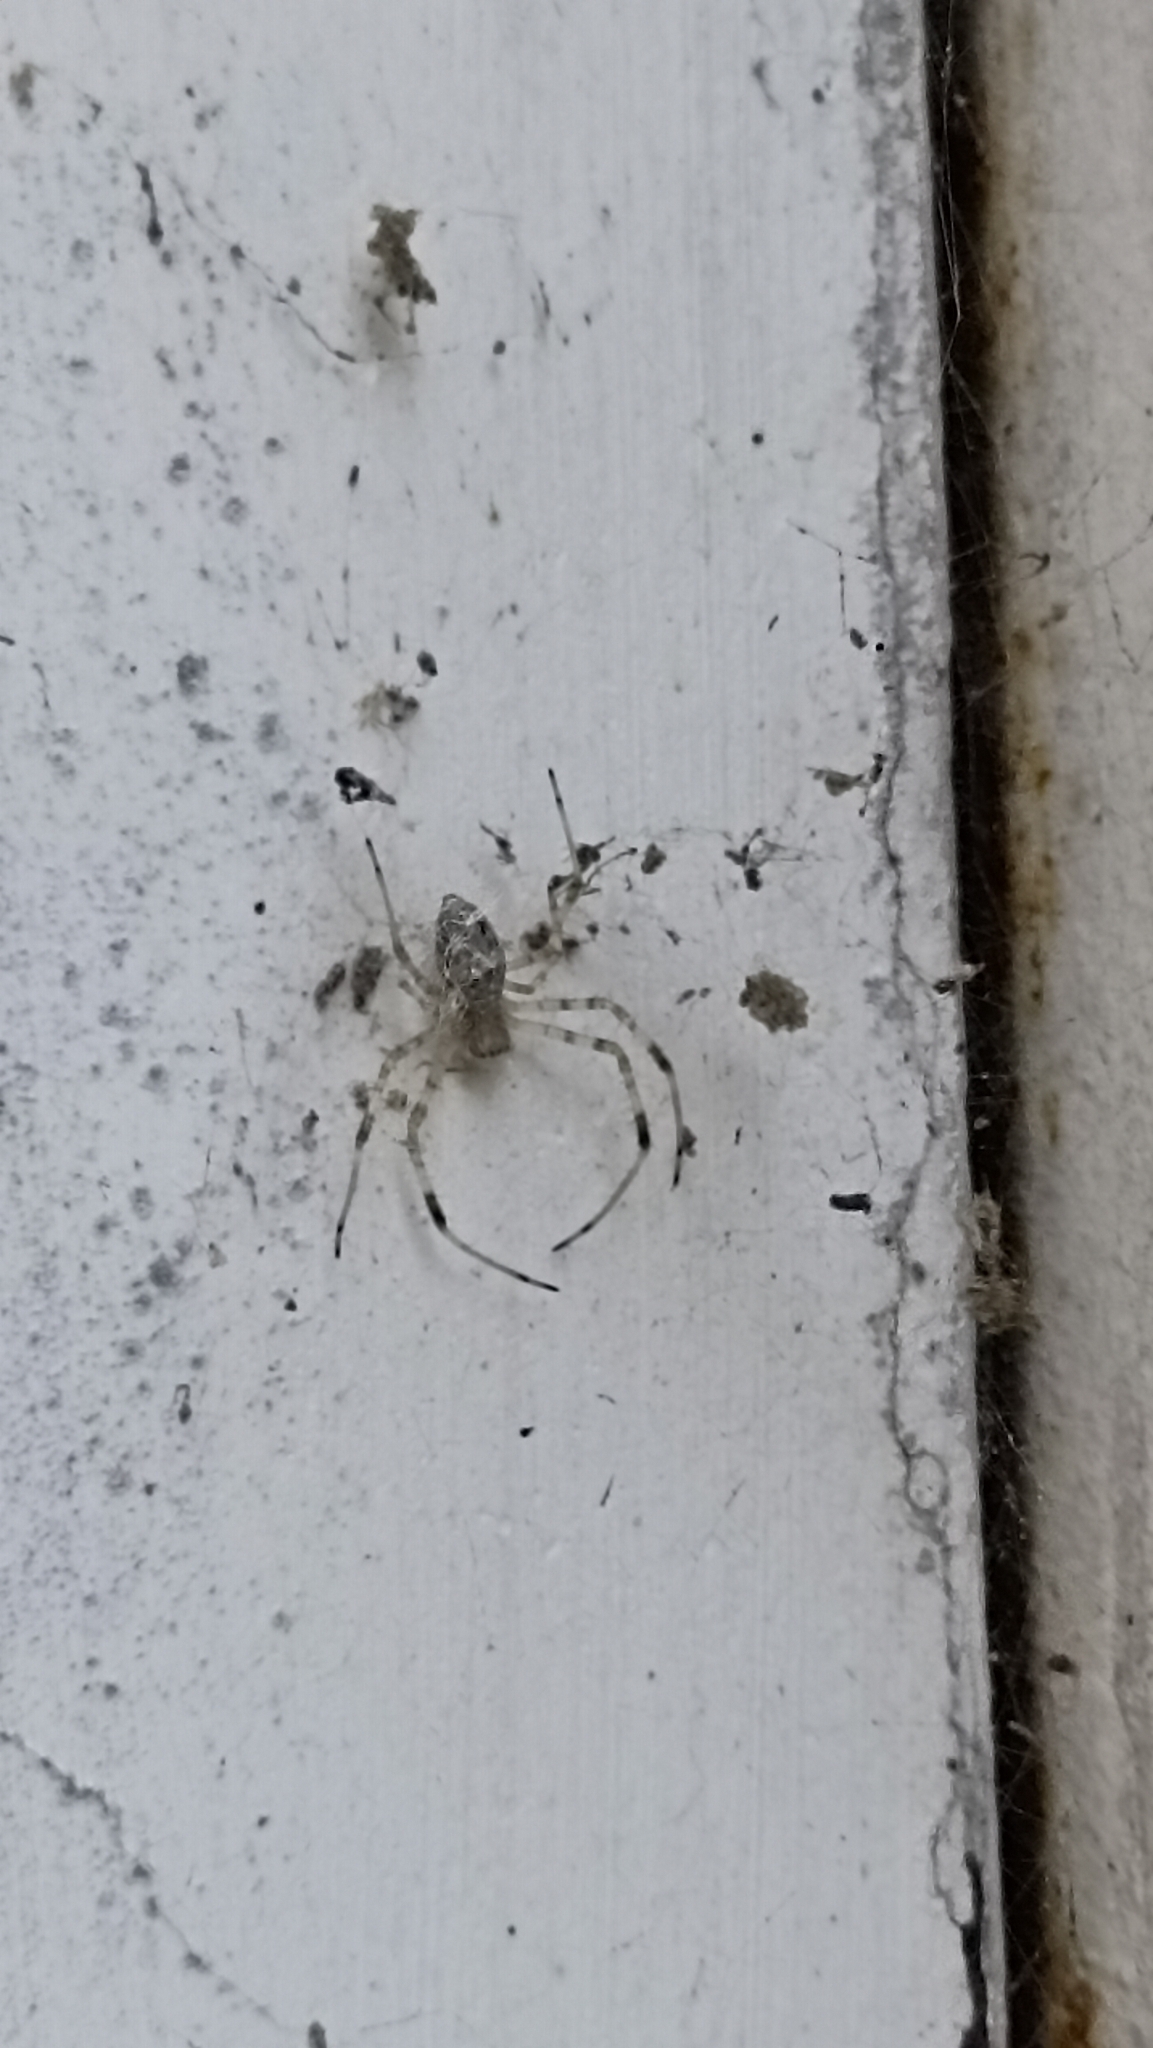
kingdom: Animalia
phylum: Arthropoda
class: Arachnida
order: Araneae
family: Araneidae
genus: Nephilingis
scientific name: Nephilingis cruentata
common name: African hermit spider
